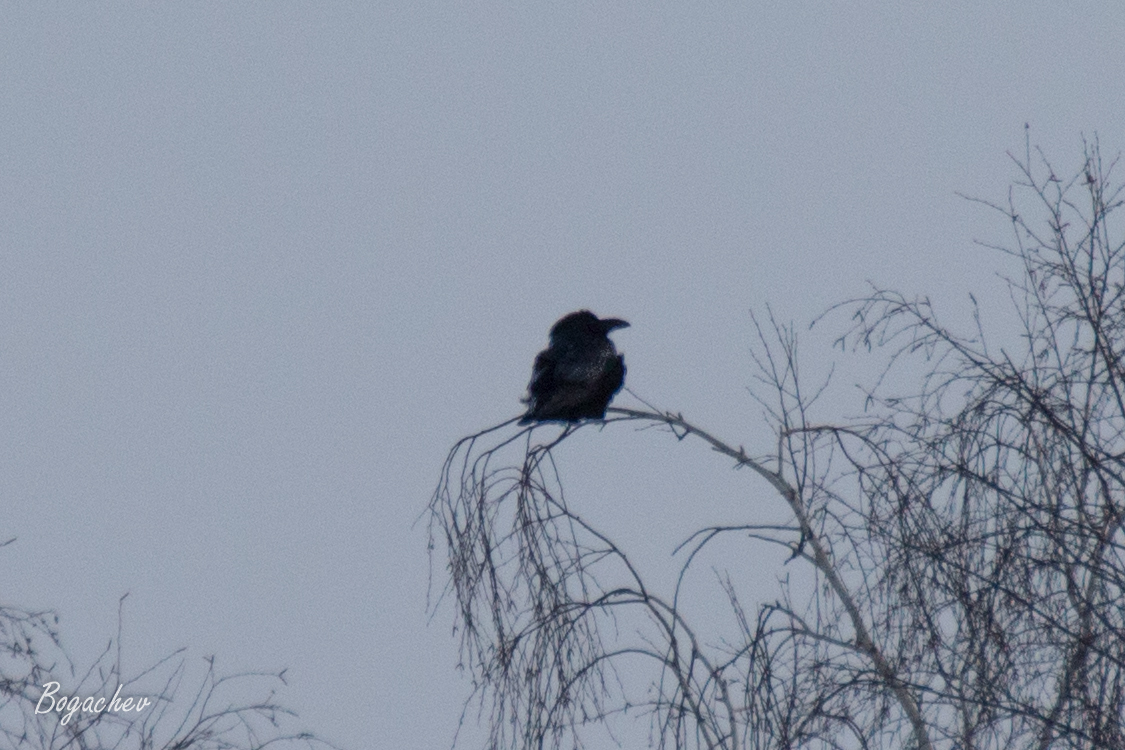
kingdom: Animalia
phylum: Chordata
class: Aves
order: Passeriformes
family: Corvidae
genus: Corvus
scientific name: Corvus corax
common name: Common raven
